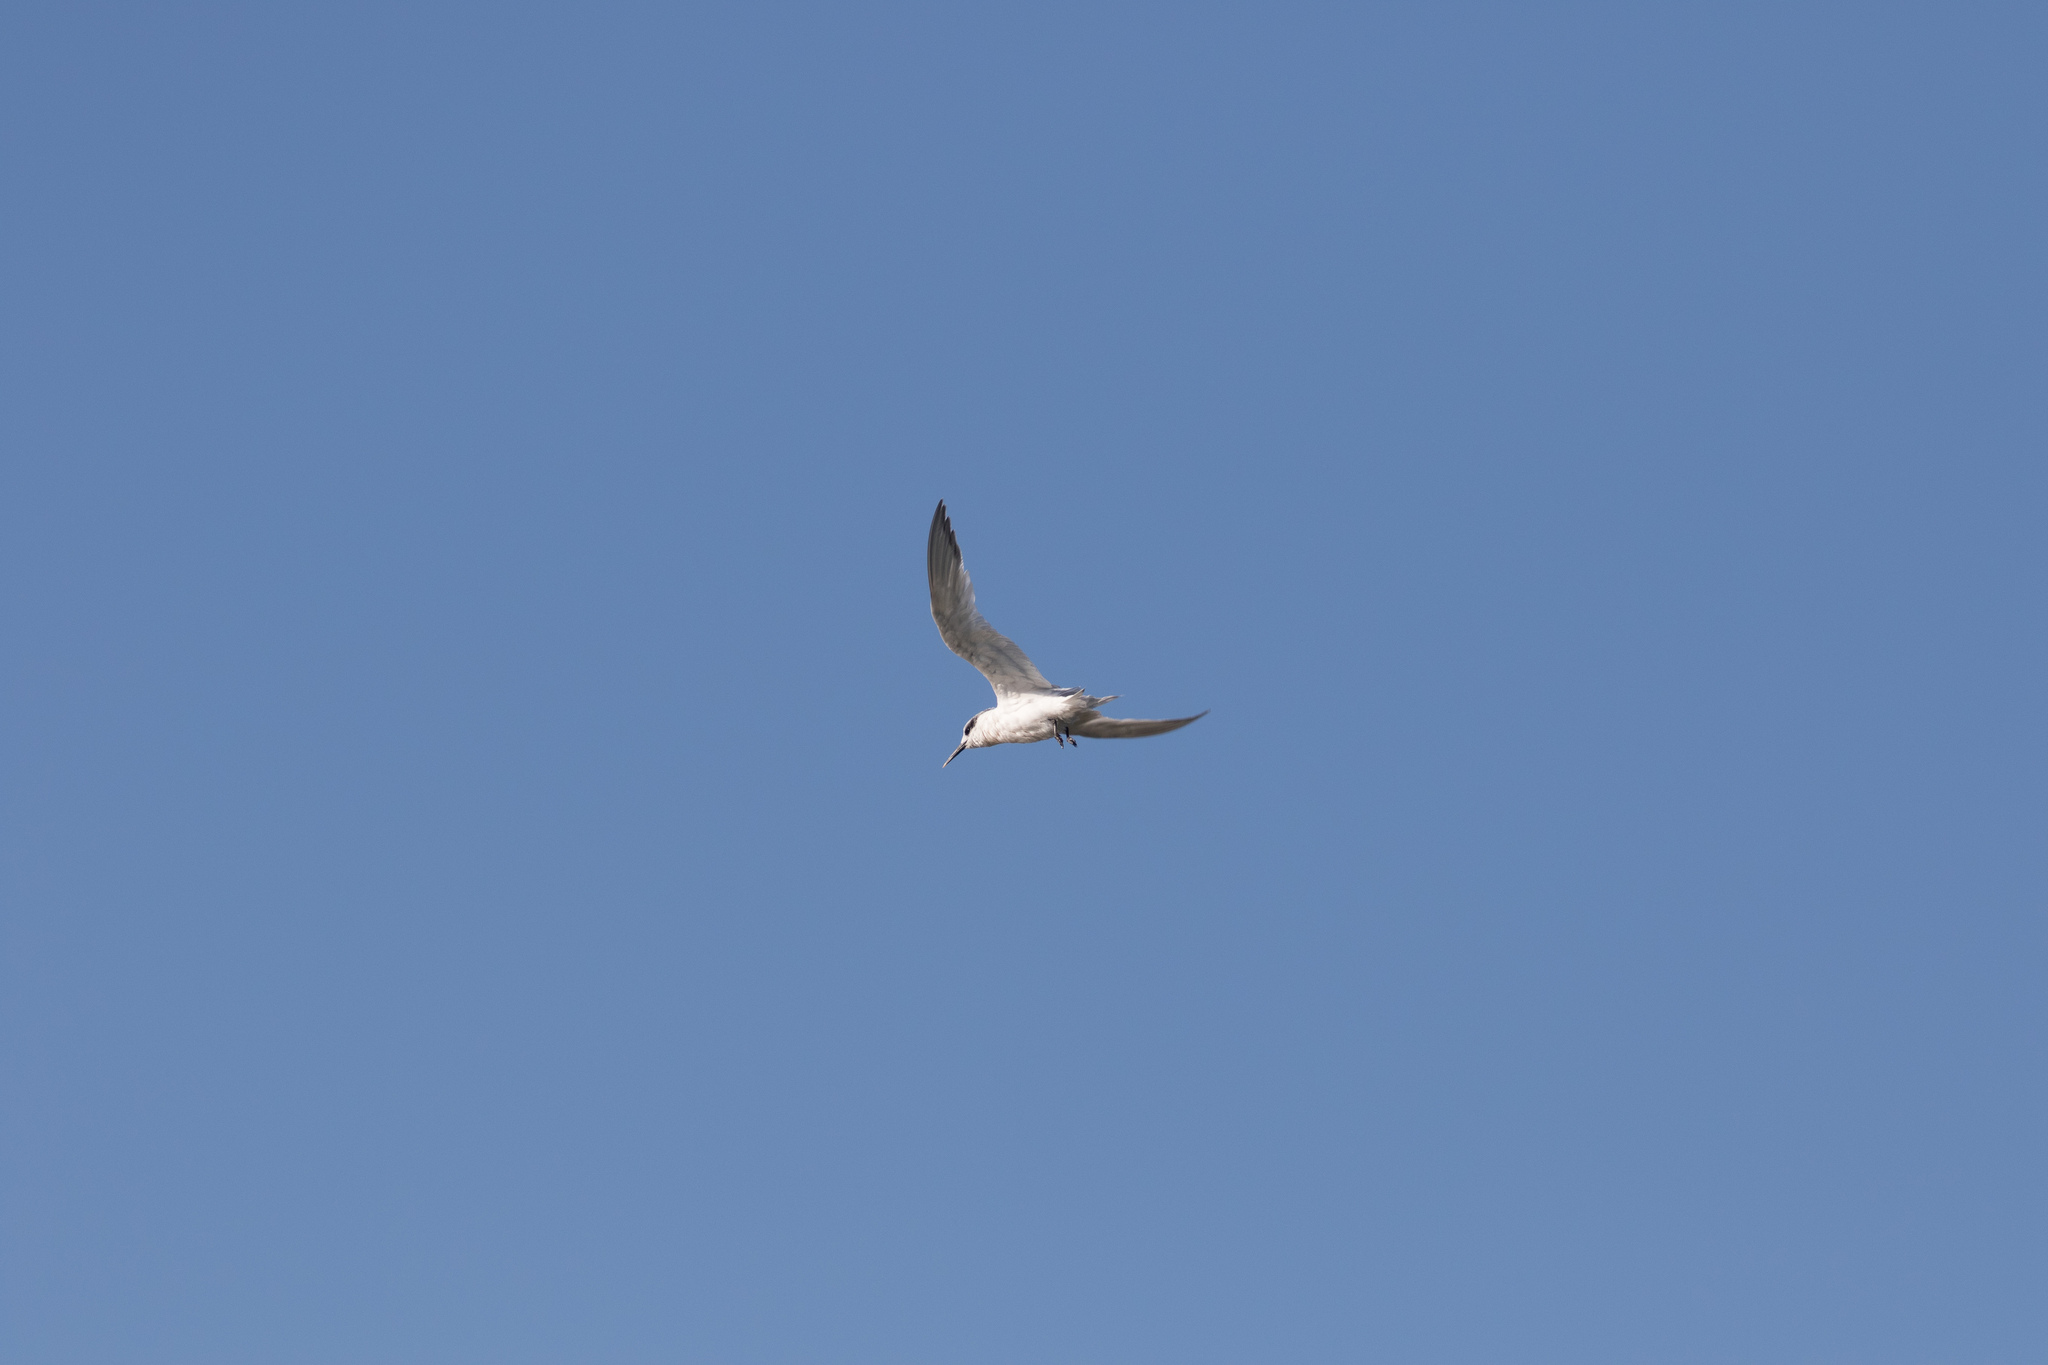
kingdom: Animalia
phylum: Chordata
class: Aves
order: Charadriiformes
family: Laridae
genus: Thalasseus
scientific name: Thalasseus sandvicensis
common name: Sandwich tern
